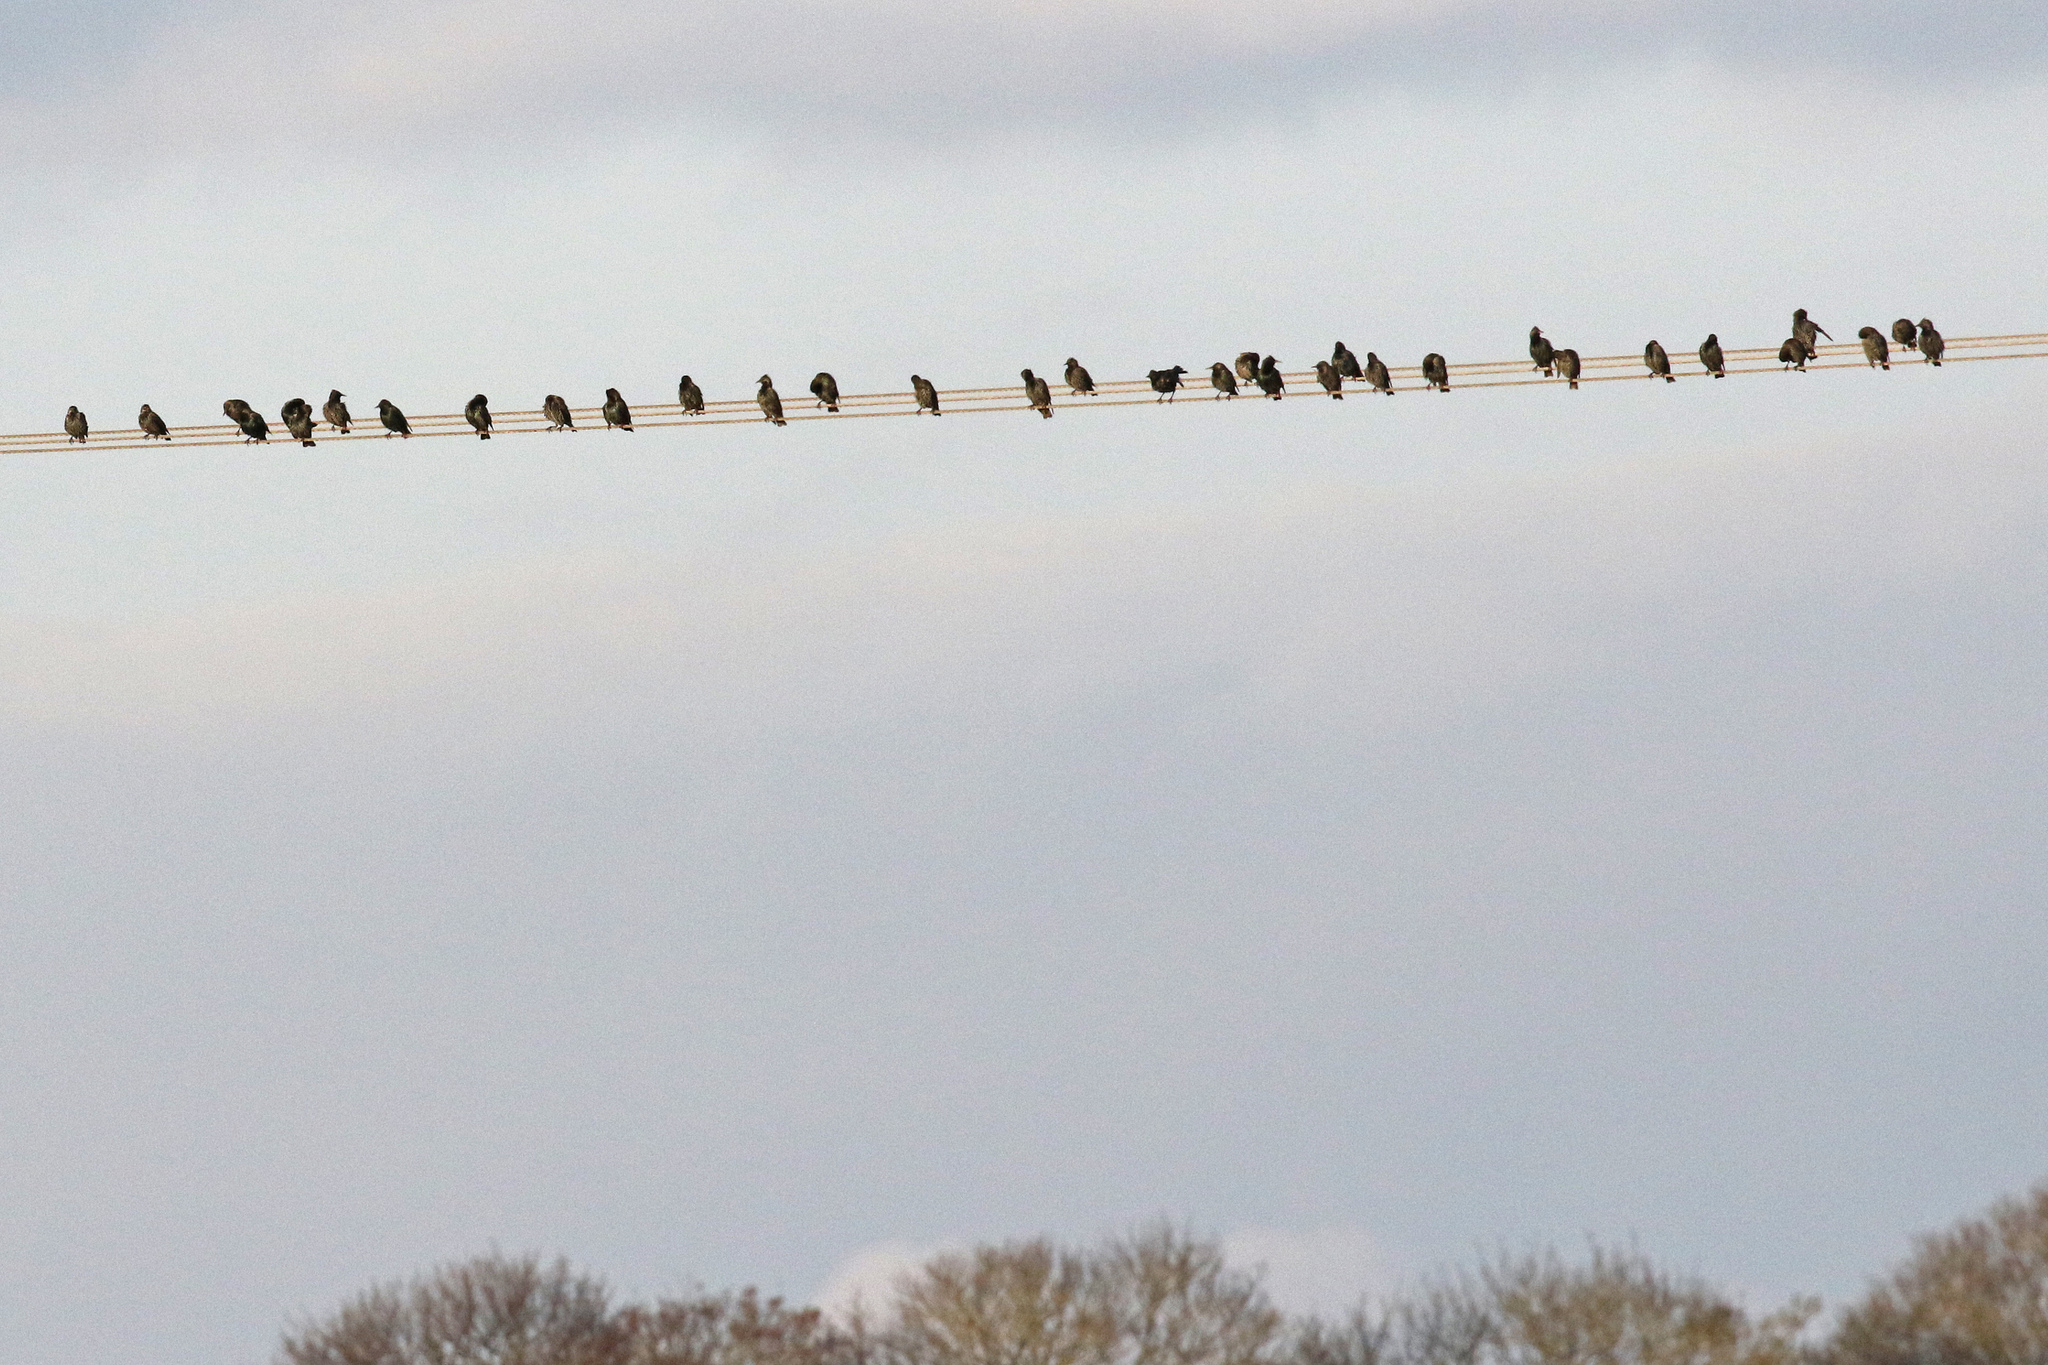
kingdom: Animalia
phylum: Chordata
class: Aves
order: Passeriformes
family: Sturnidae
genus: Sturnus
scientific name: Sturnus vulgaris
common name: Common starling
